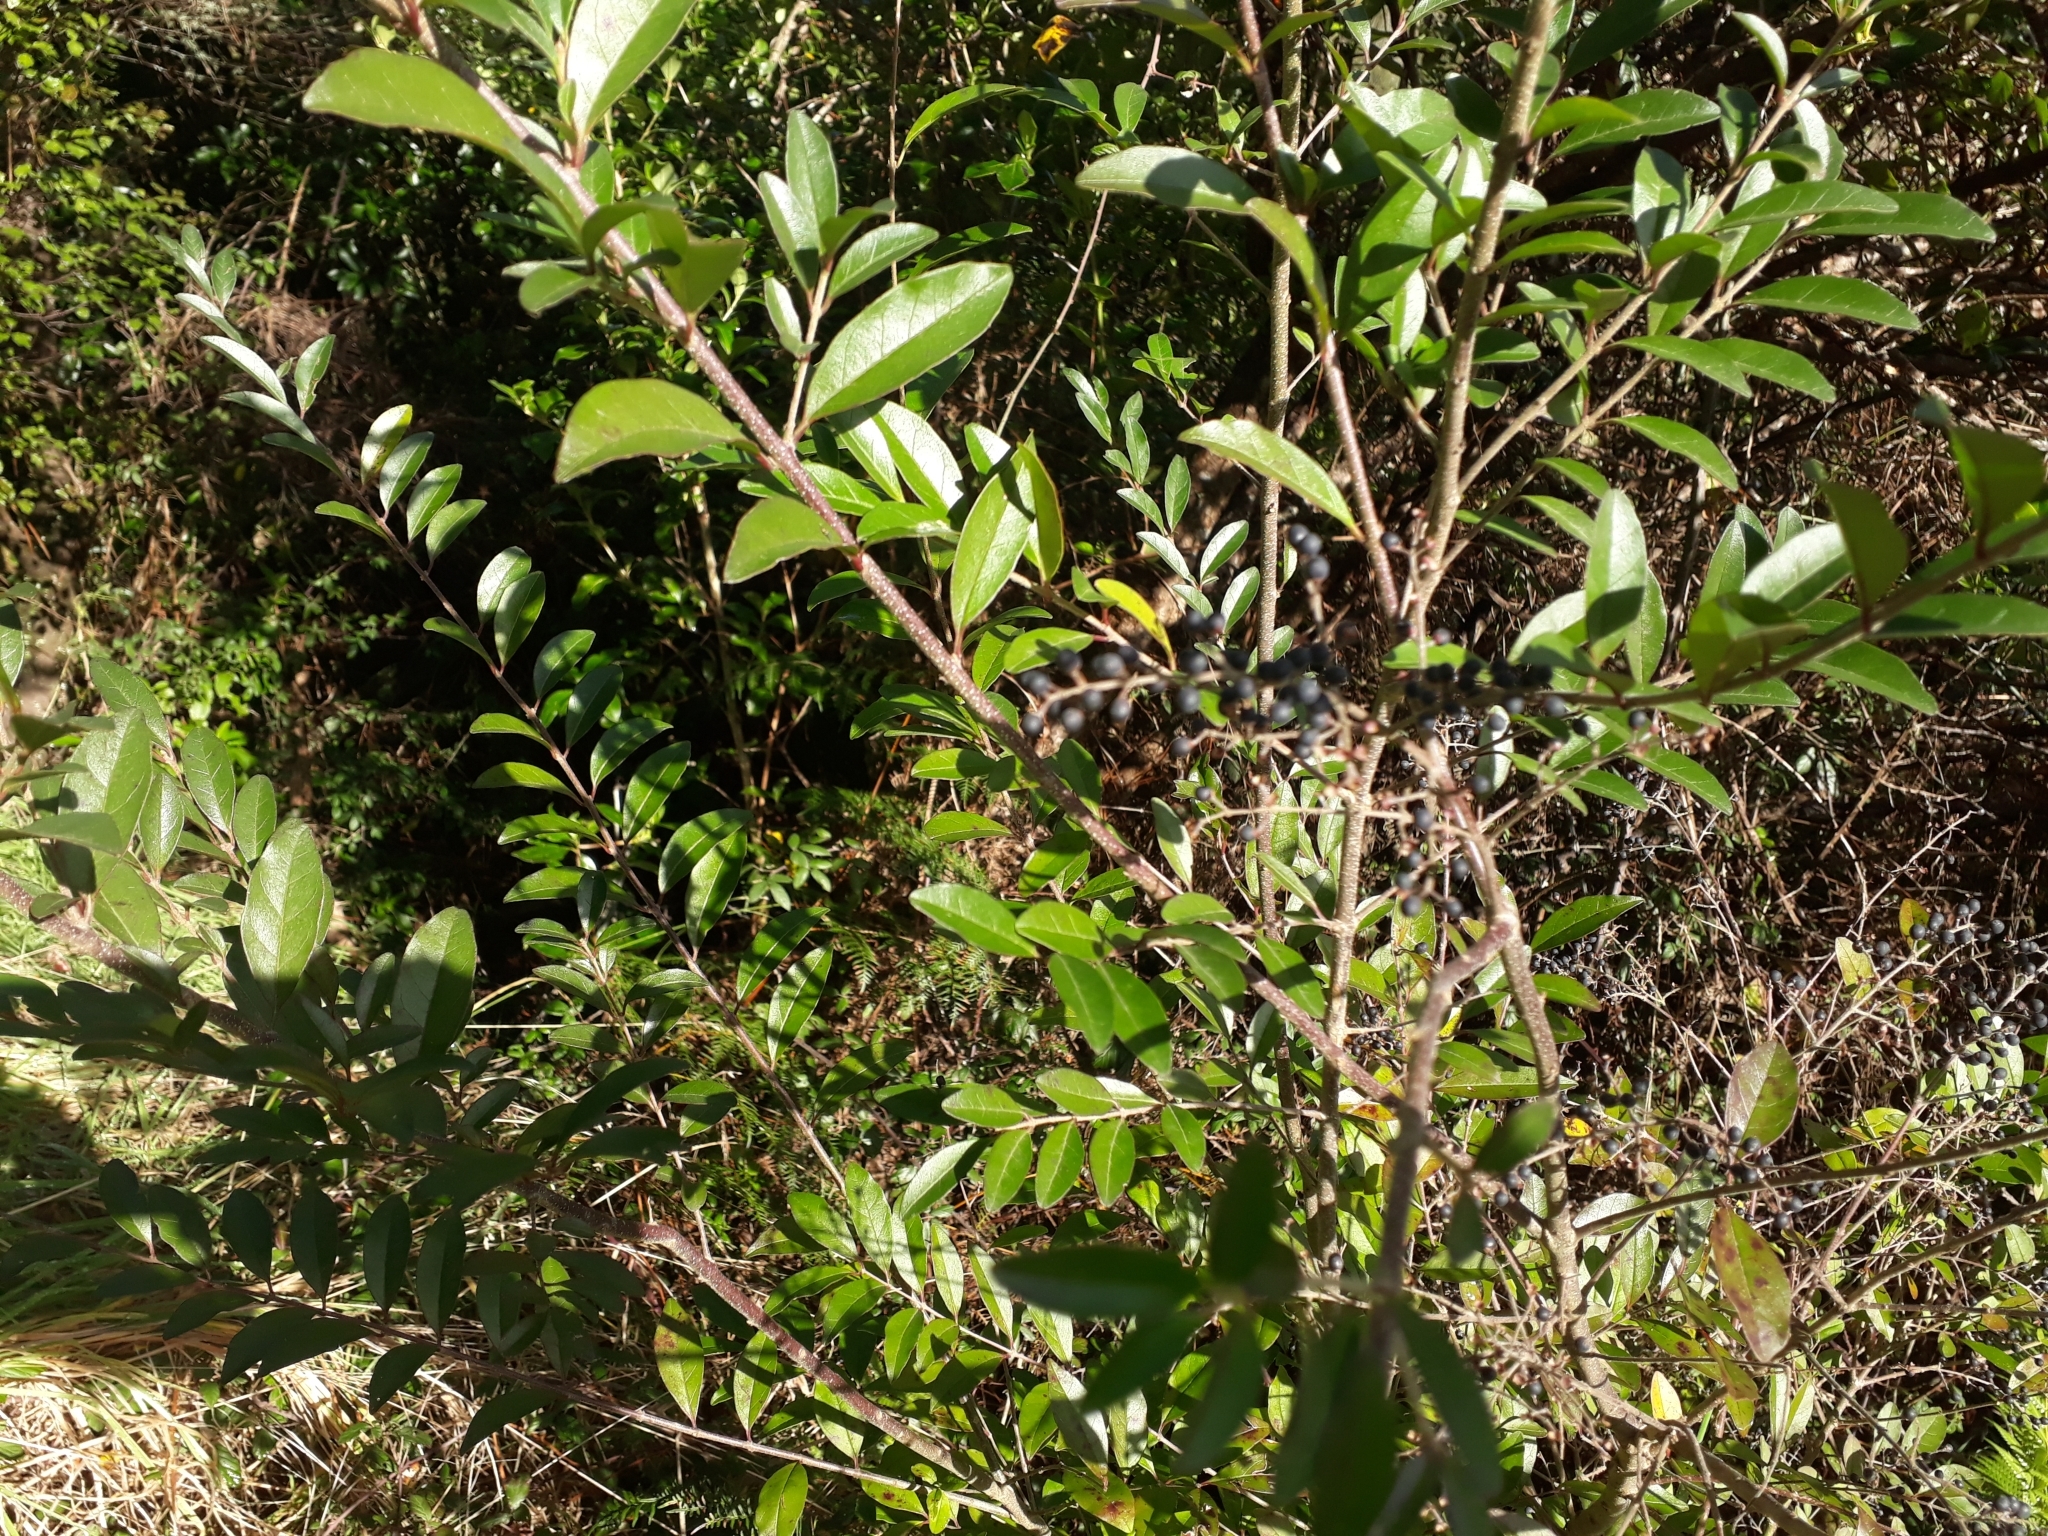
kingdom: Plantae
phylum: Tracheophyta
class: Magnoliopsida
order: Lamiales
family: Oleaceae
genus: Ligustrum
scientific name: Ligustrum sinense
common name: Chinese privet
